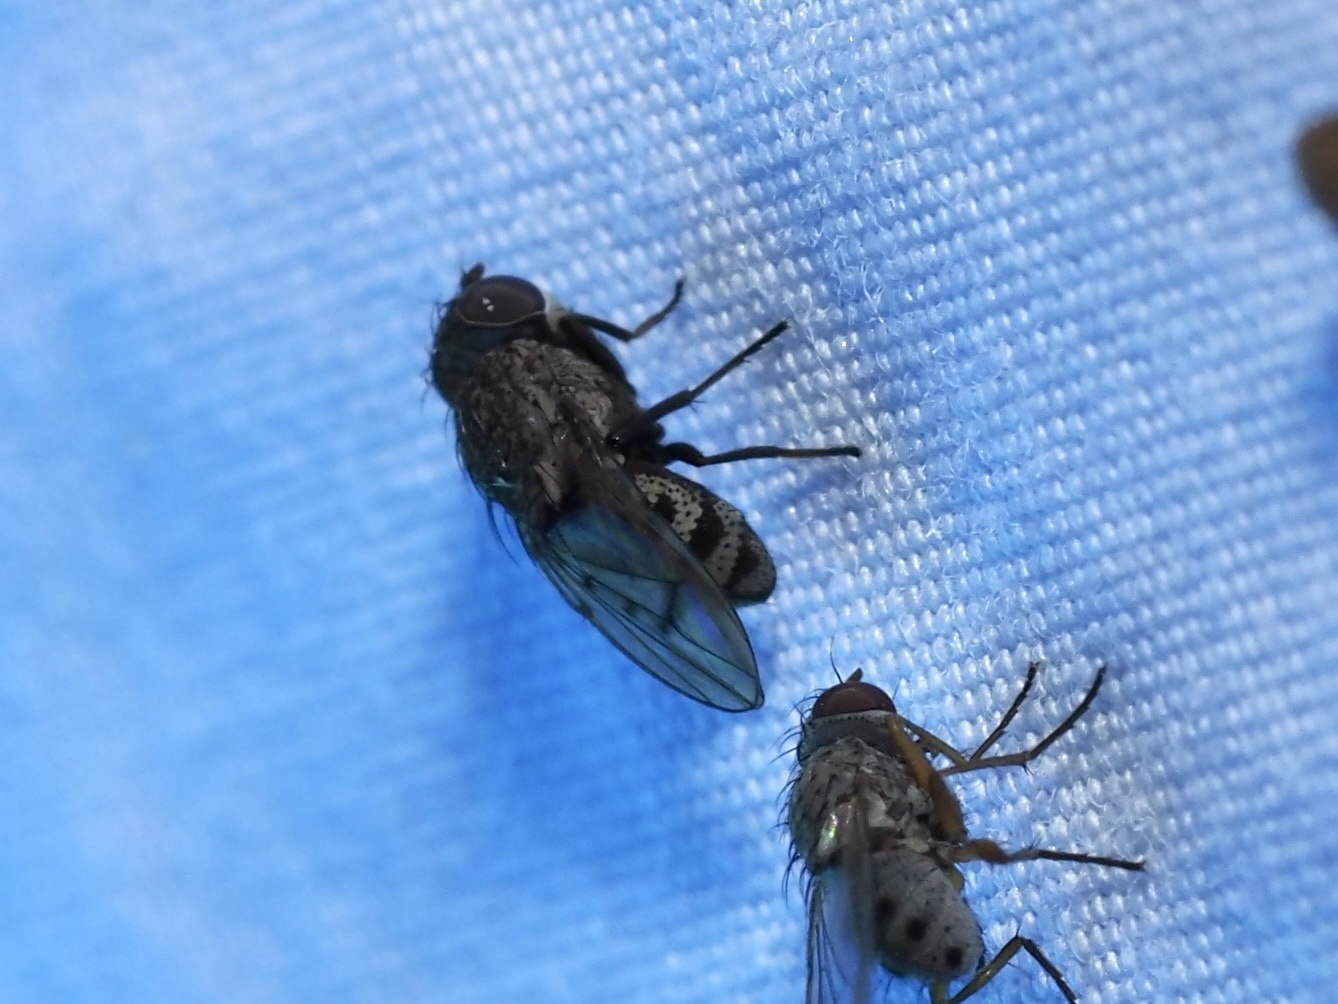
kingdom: Animalia
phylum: Arthropoda
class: Insecta
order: Diptera
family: Ephydridae
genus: Paralimna
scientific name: Paralimna punctipennis
